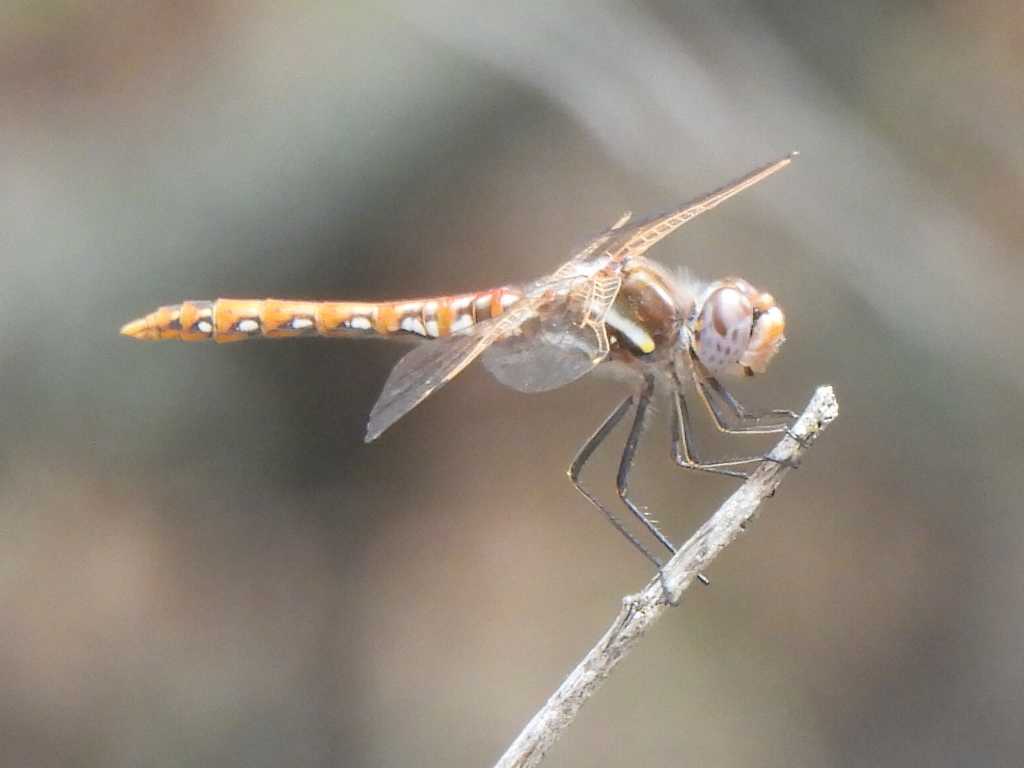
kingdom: Animalia
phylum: Arthropoda
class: Insecta
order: Odonata
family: Libellulidae
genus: Sympetrum
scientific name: Sympetrum corruptum
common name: Variegated meadowhawk
